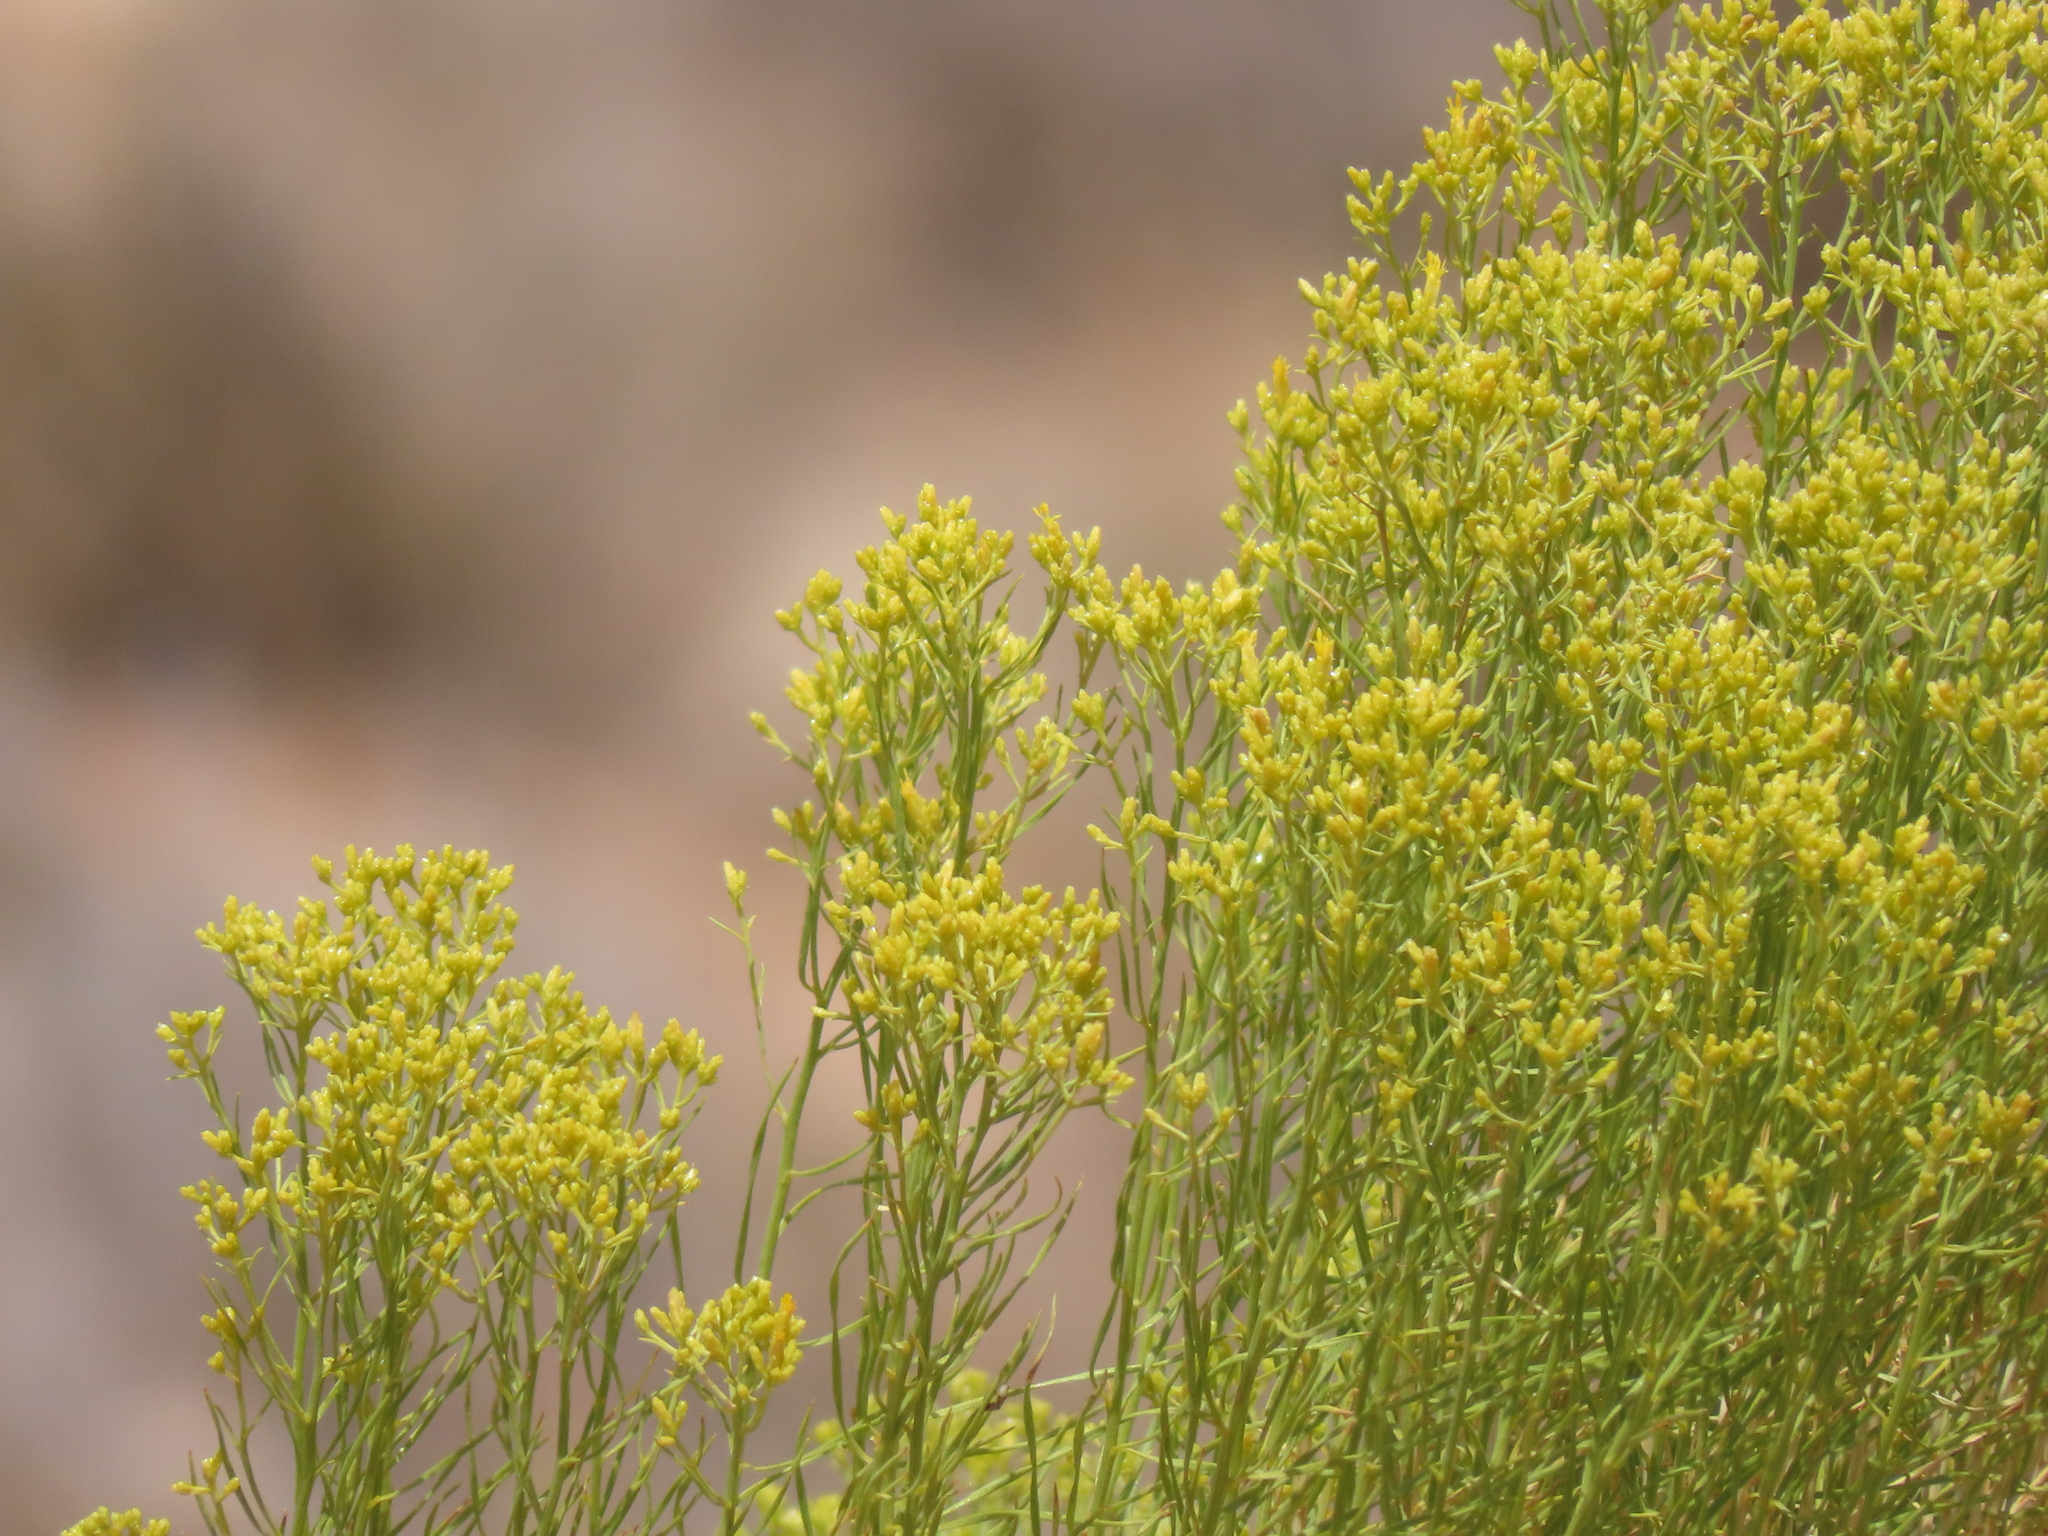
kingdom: Plantae
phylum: Tracheophyta
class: Magnoliopsida
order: Asterales
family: Asteraceae
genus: Gutierrezia
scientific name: Gutierrezia sarothrae
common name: Broom snakeweed
